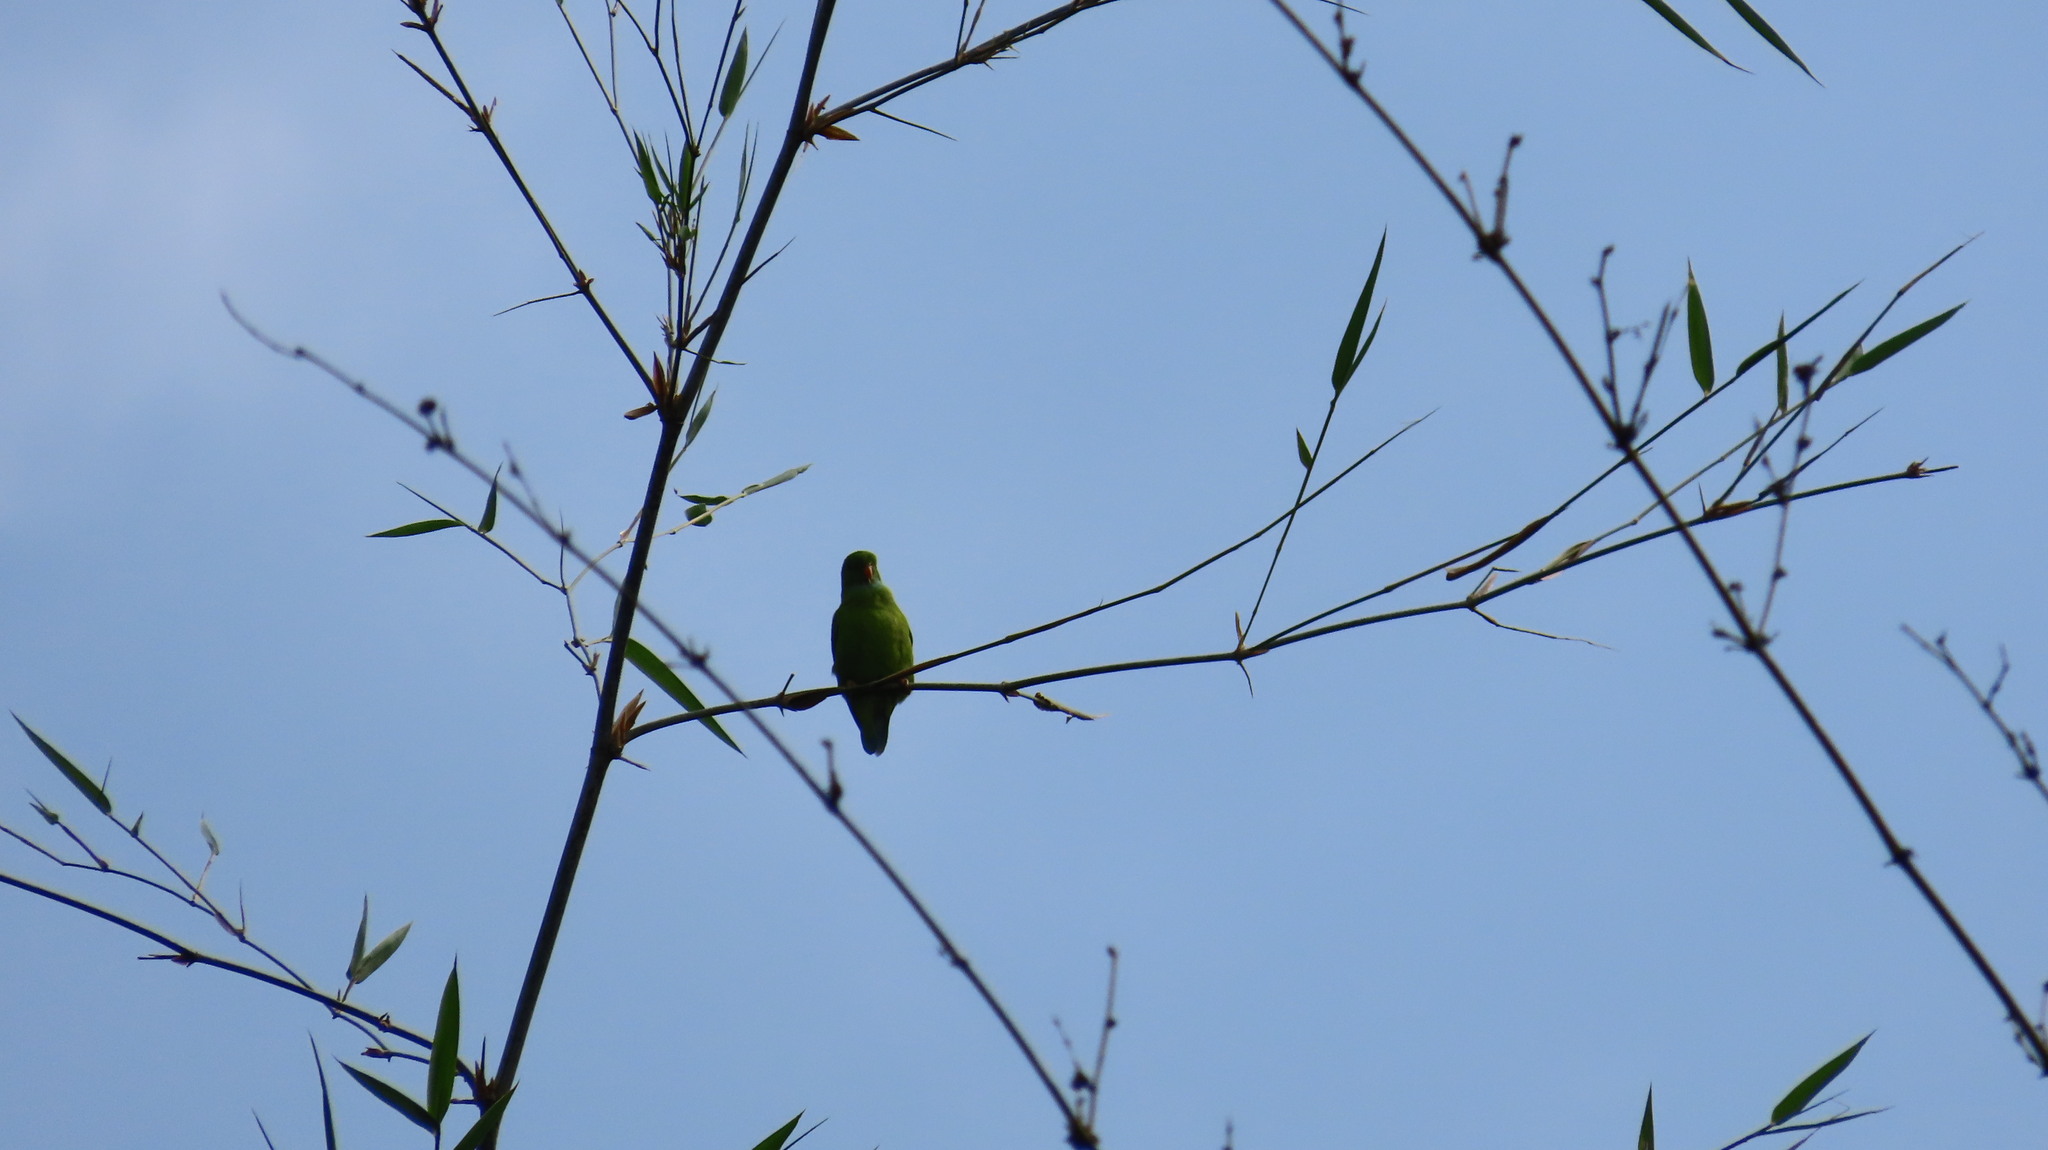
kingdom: Animalia
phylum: Chordata
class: Aves
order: Psittaciformes
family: Psittacidae
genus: Loriculus
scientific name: Loriculus vernalis
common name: Vernal hanging parrot
